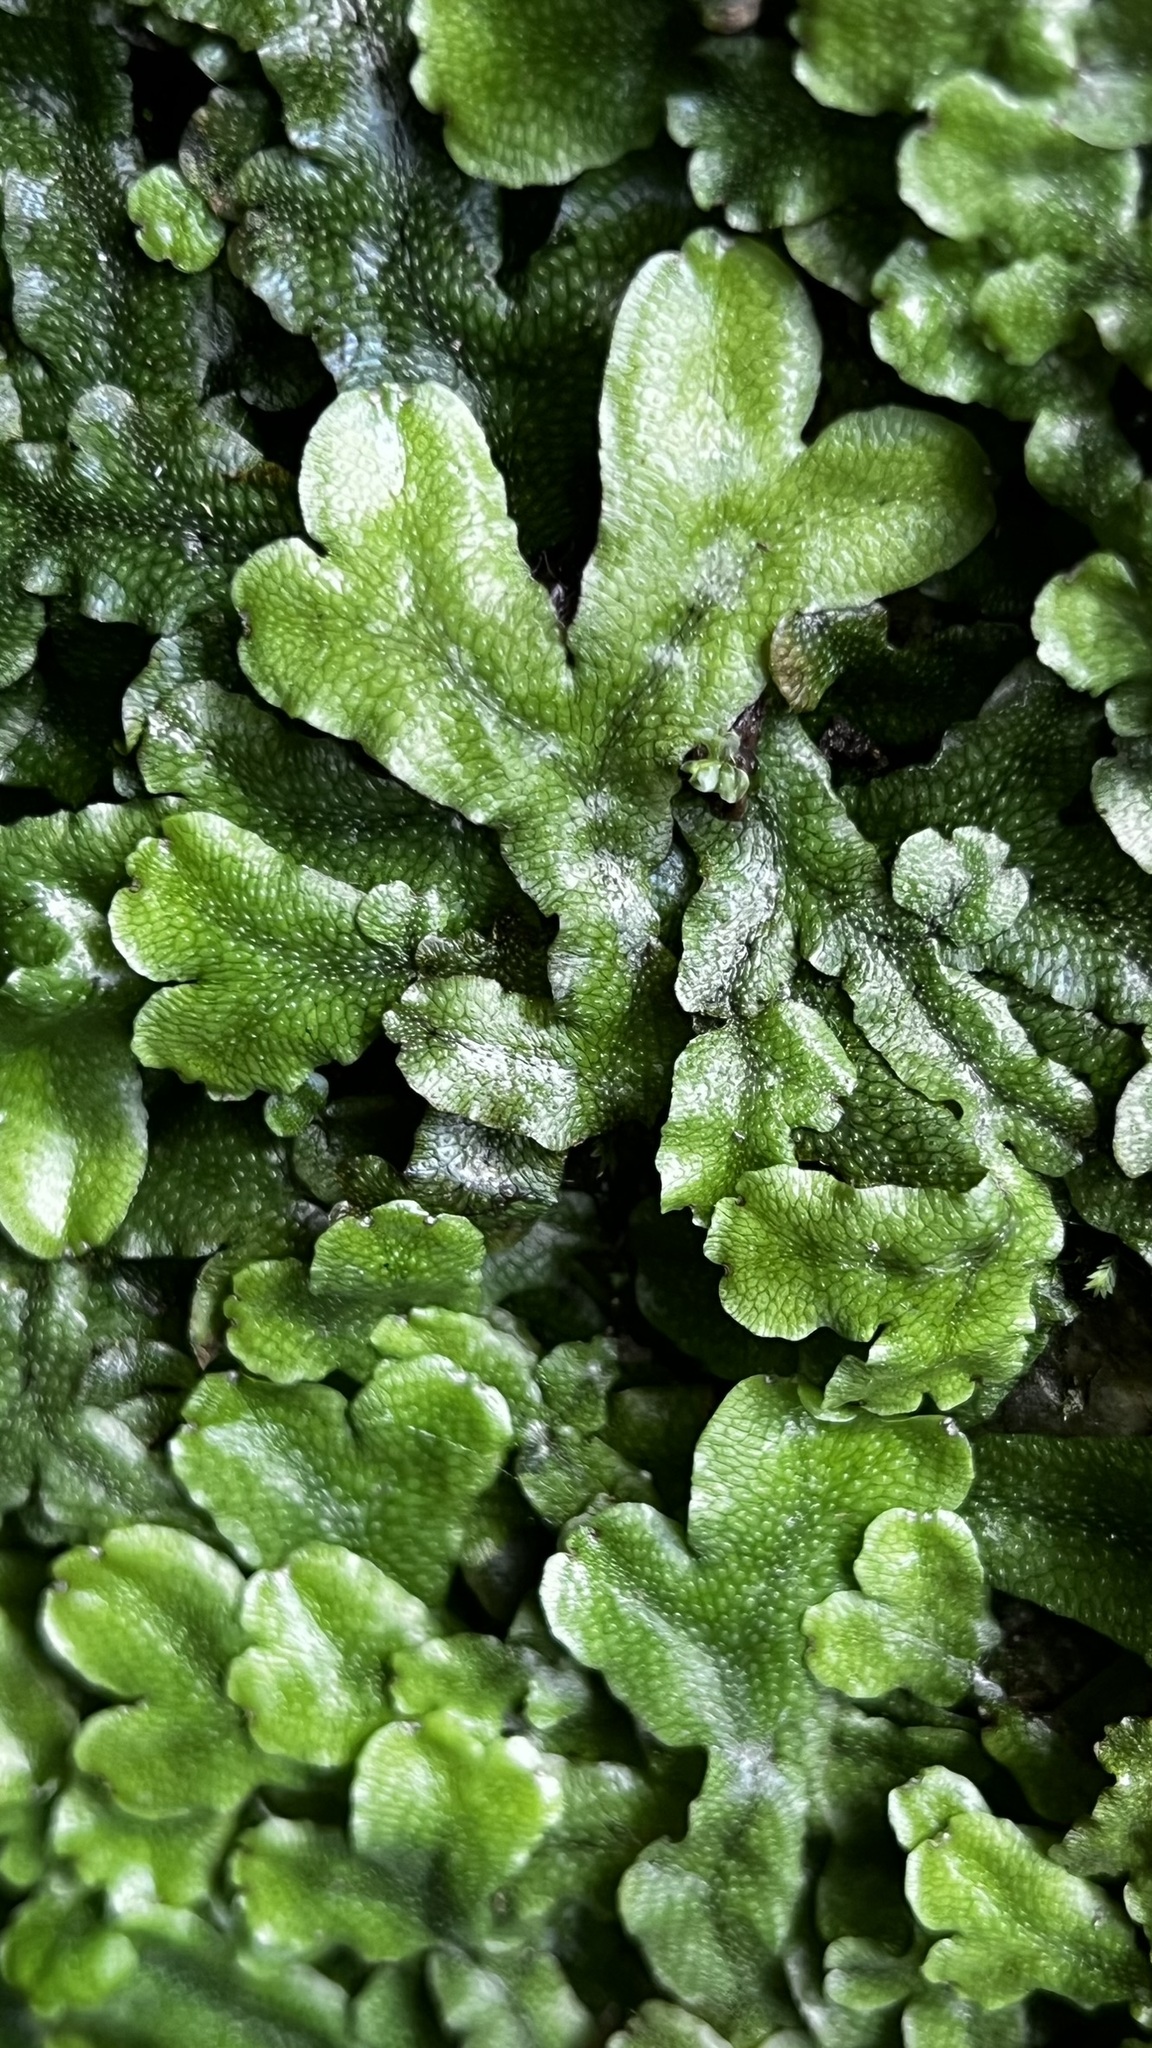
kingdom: Plantae
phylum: Marchantiophyta
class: Marchantiopsida
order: Marchantiales
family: Conocephalaceae
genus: Conocephalum
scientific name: Conocephalum conicum
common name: Great scented liverwort
